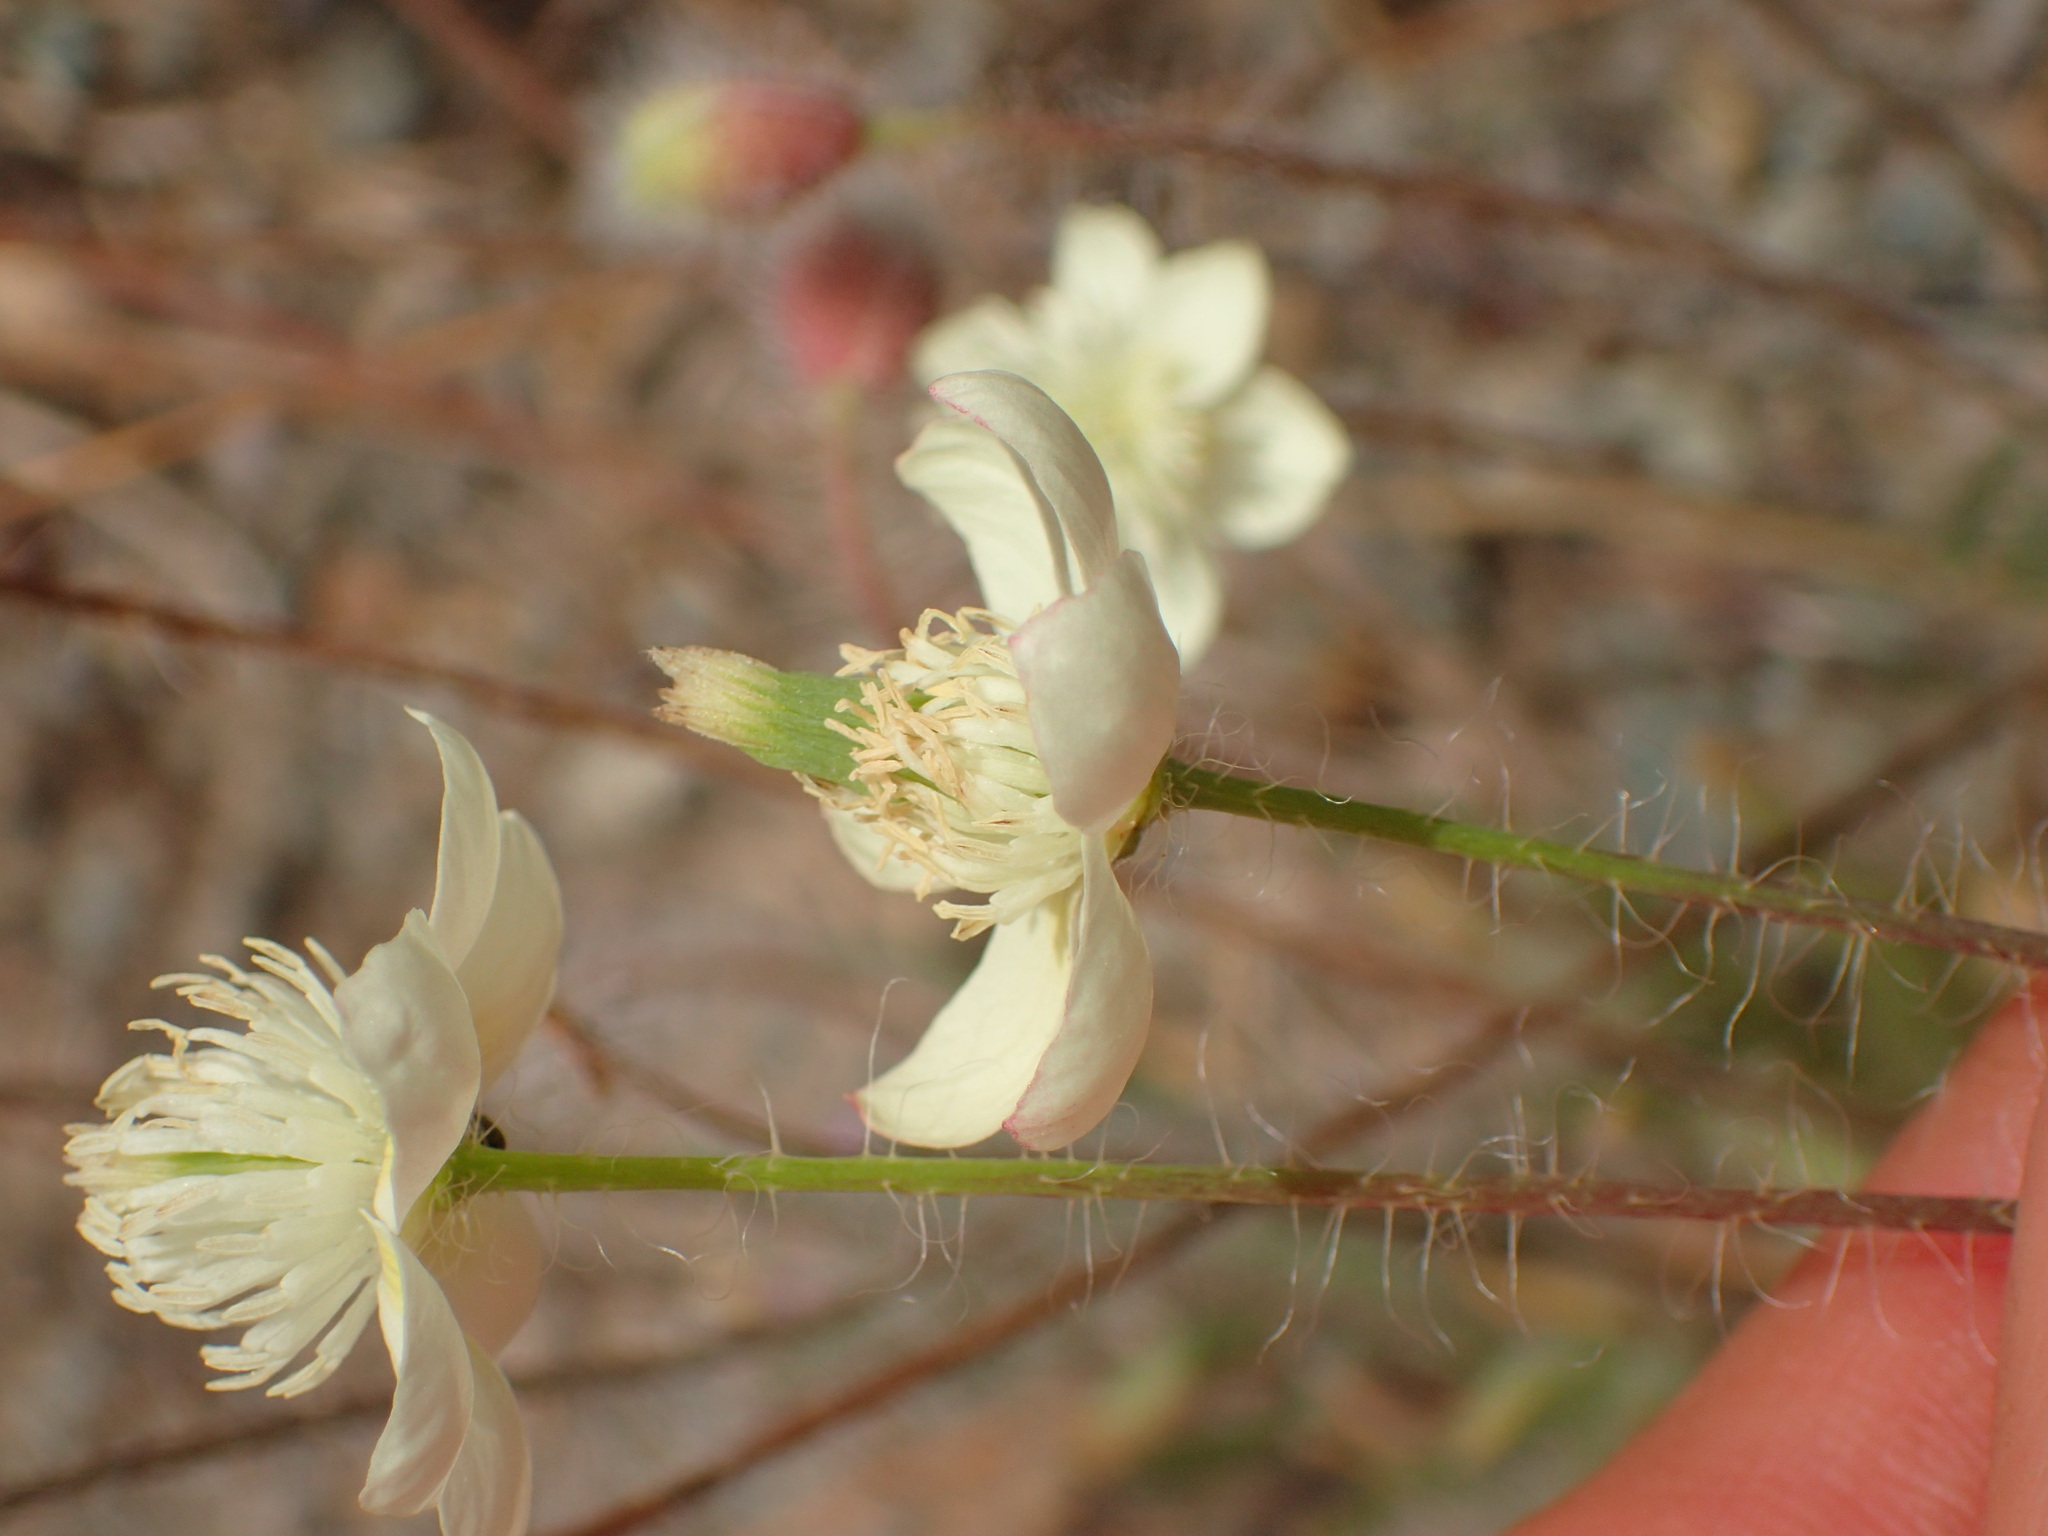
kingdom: Plantae
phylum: Tracheophyta
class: Magnoliopsida
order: Ranunculales
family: Papaveraceae
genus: Platystemon
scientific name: Platystemon californicus
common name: Cream-cups
